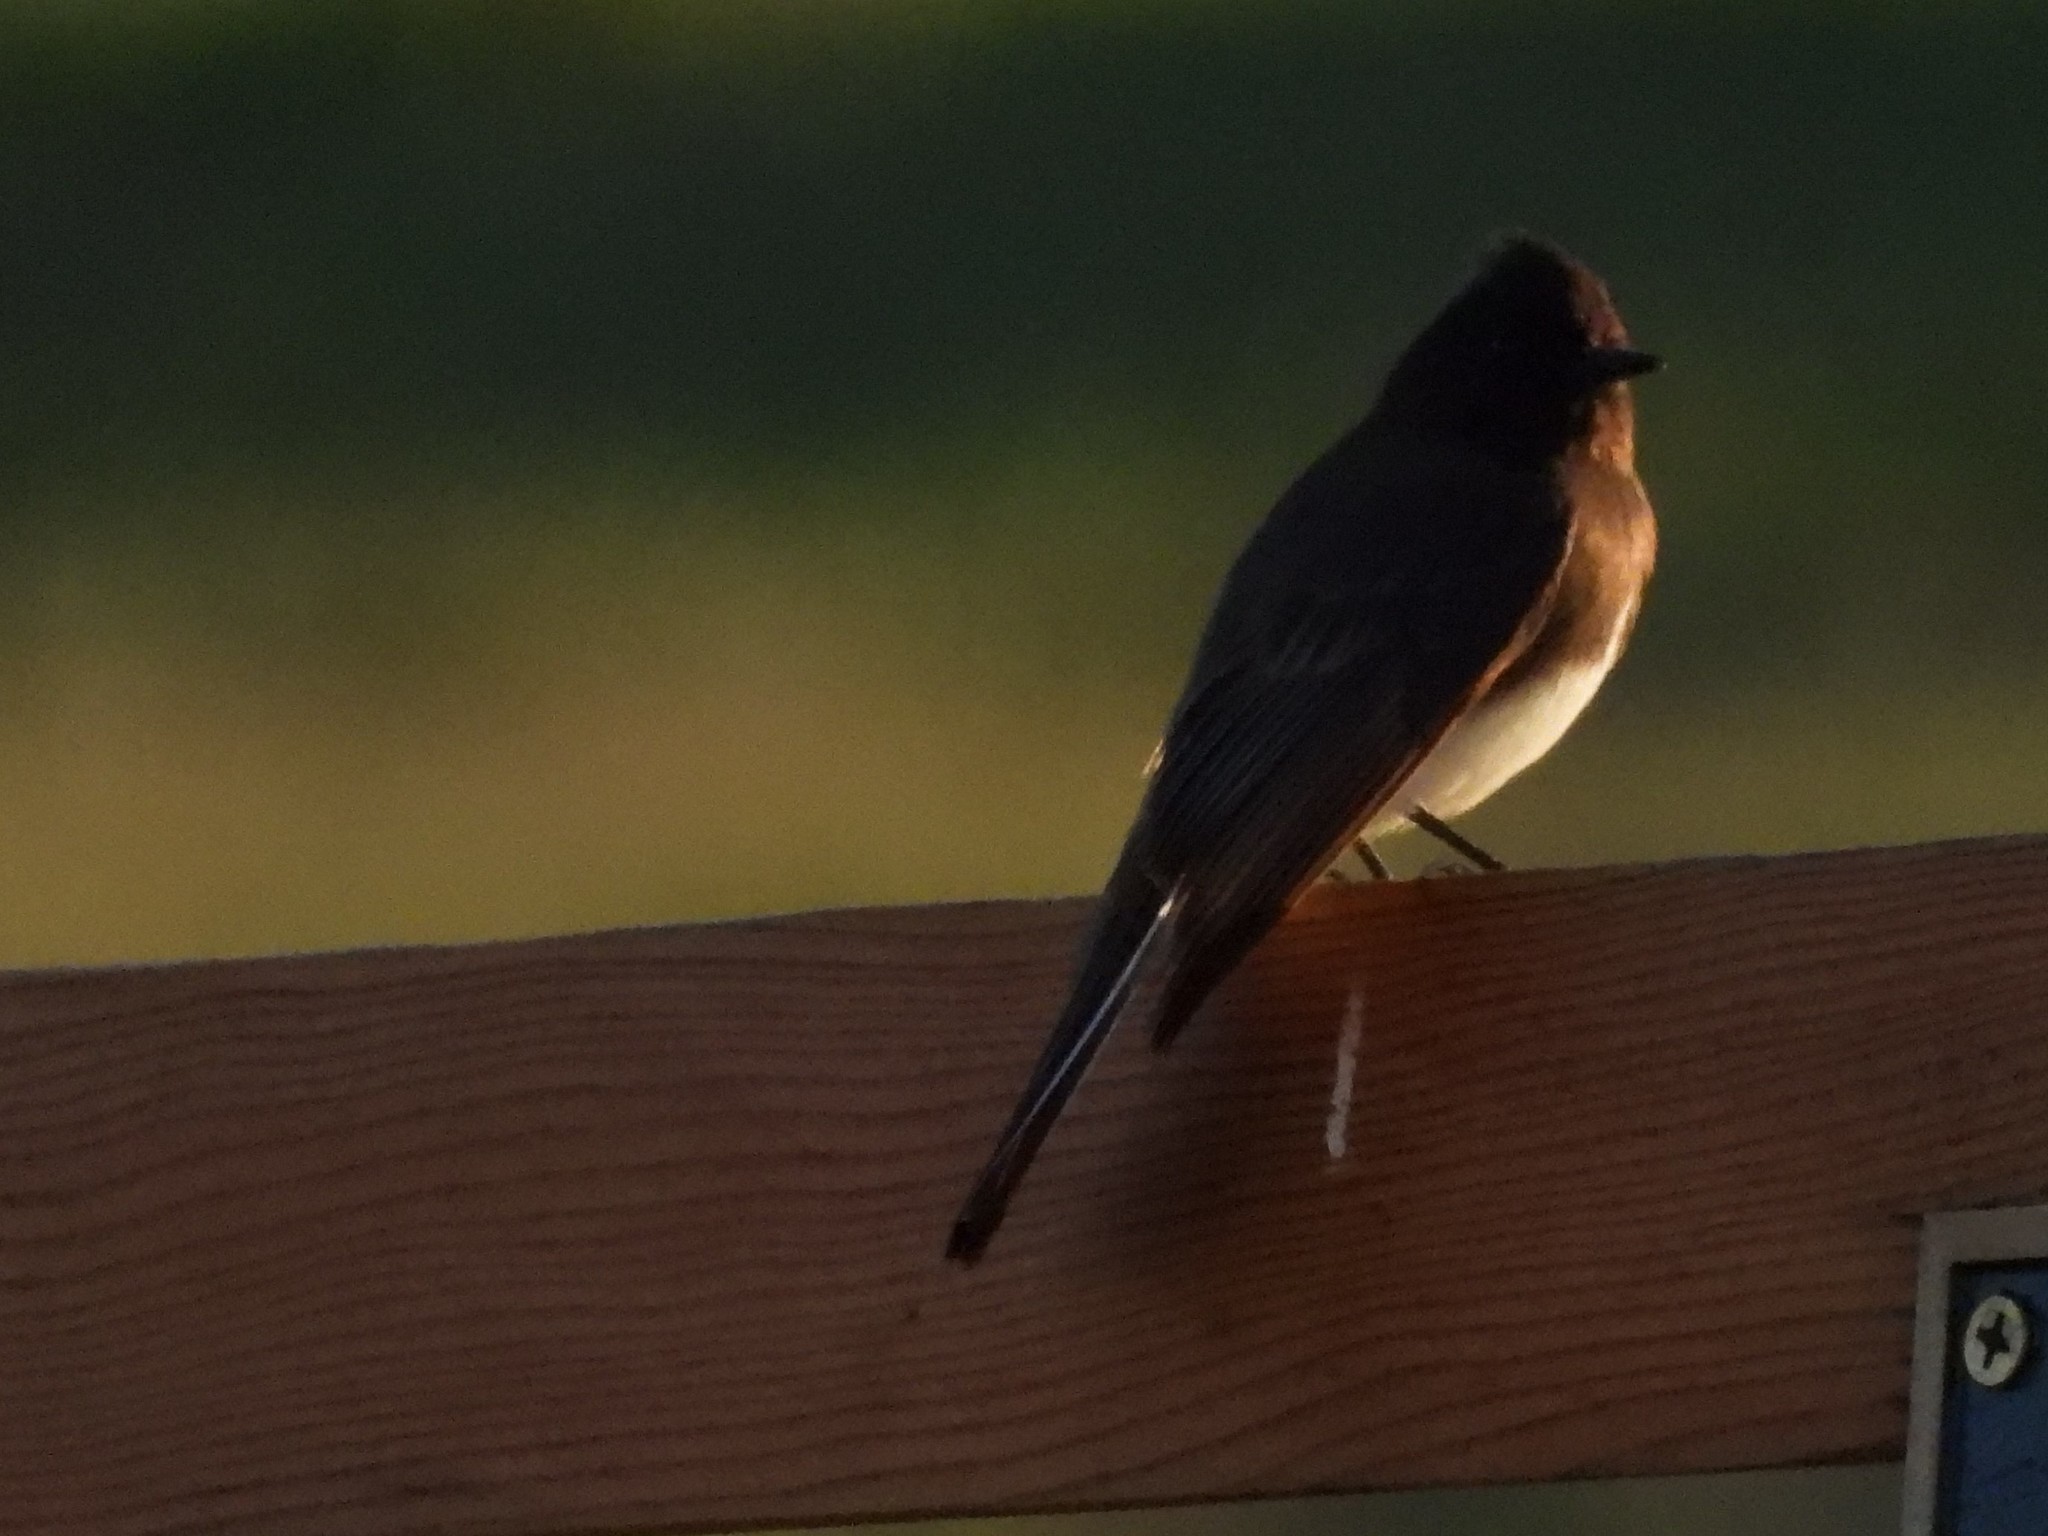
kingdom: Animalia
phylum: Chordata
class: Aves
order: Passeriformes
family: Tyrannidae
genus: Sayornis
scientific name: Sayornis nigricans
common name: Black phoebe
